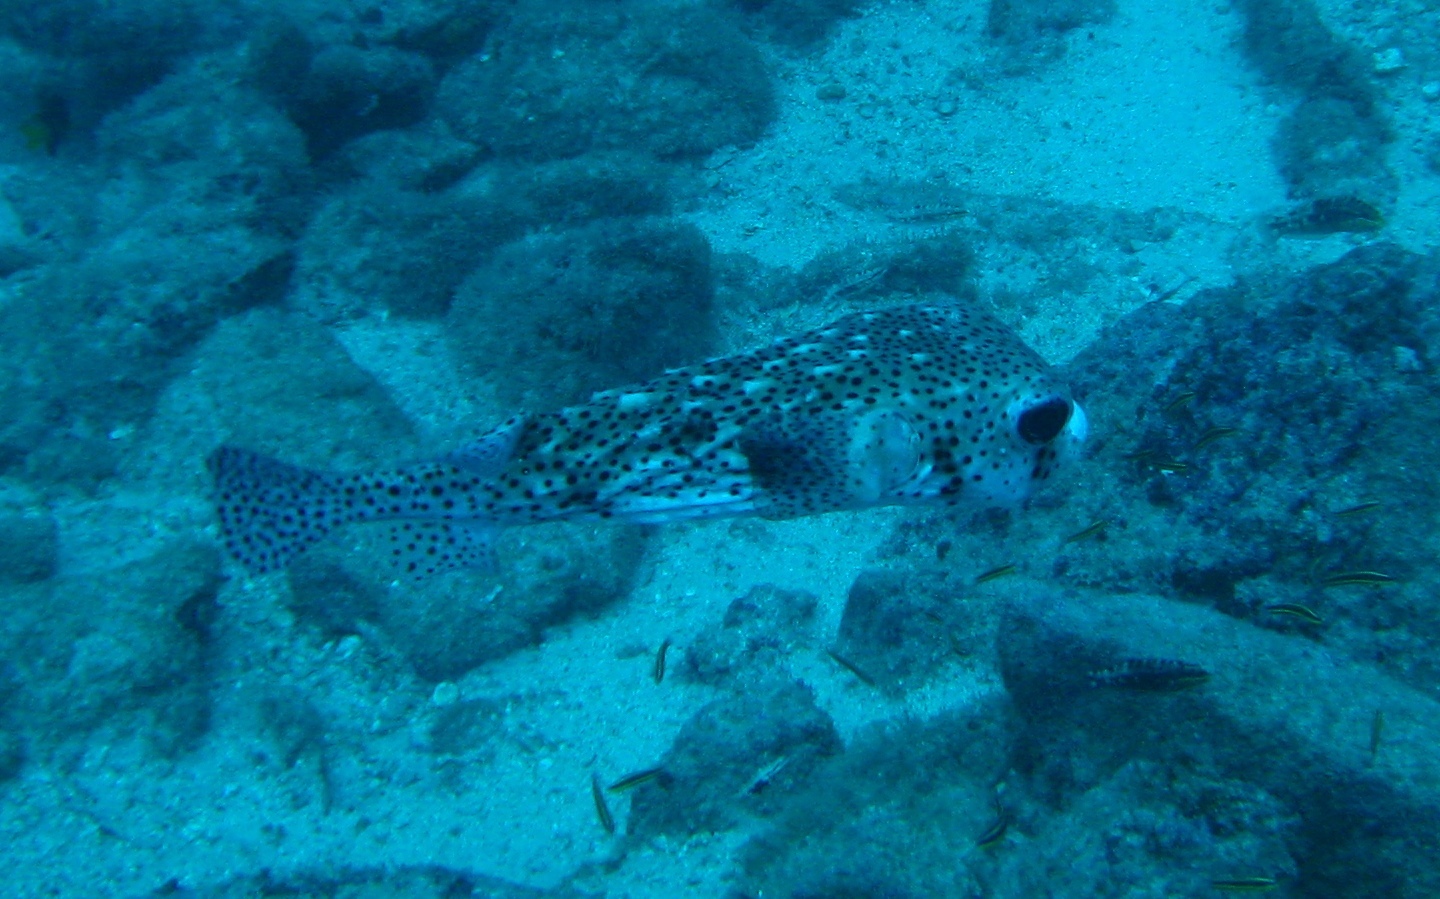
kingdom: Animalia
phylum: Chordata
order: Tetraodontiformes
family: Diodontidae
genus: Chilomycterus
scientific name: Chilomycterus reticulatus
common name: Spotfin burrfish
